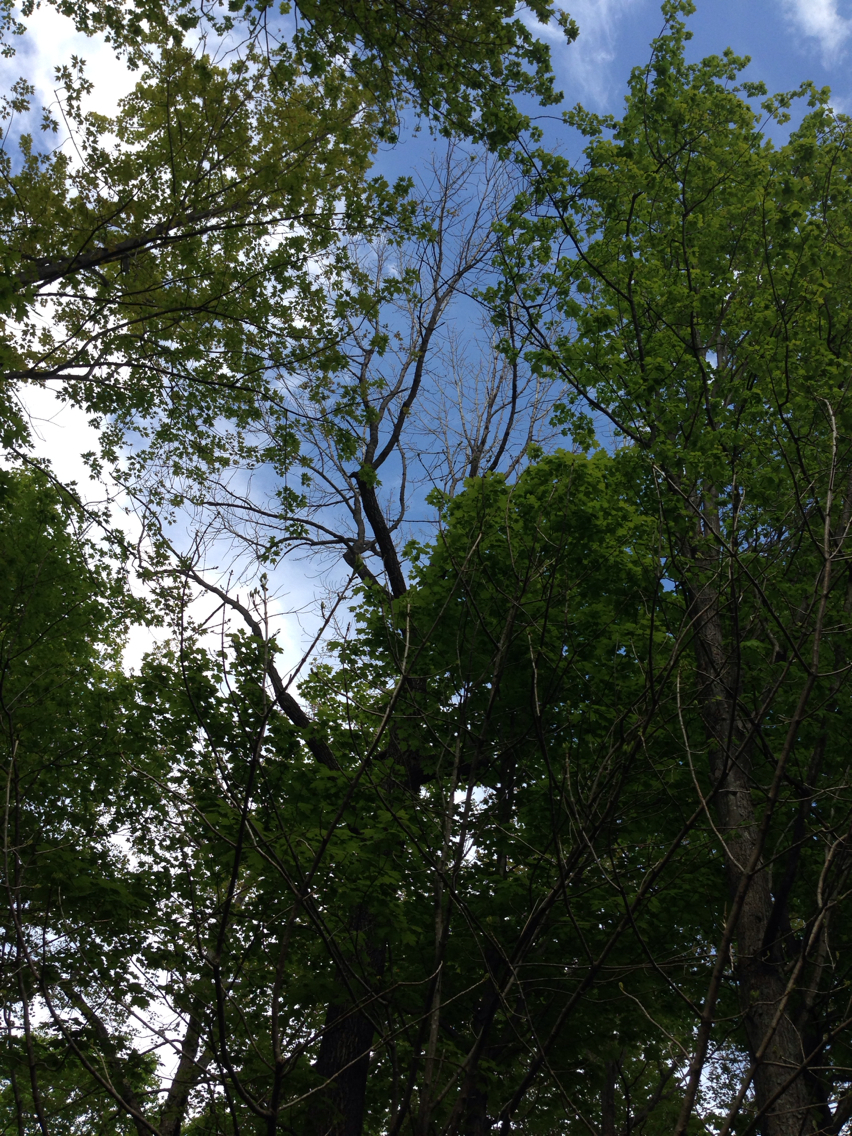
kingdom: Plantae
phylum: Tracheophyta
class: Magnoliopsida
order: Lamiales
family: Oleaceae
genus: Fraxinus
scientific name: Fraxinus americana
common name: White ash
